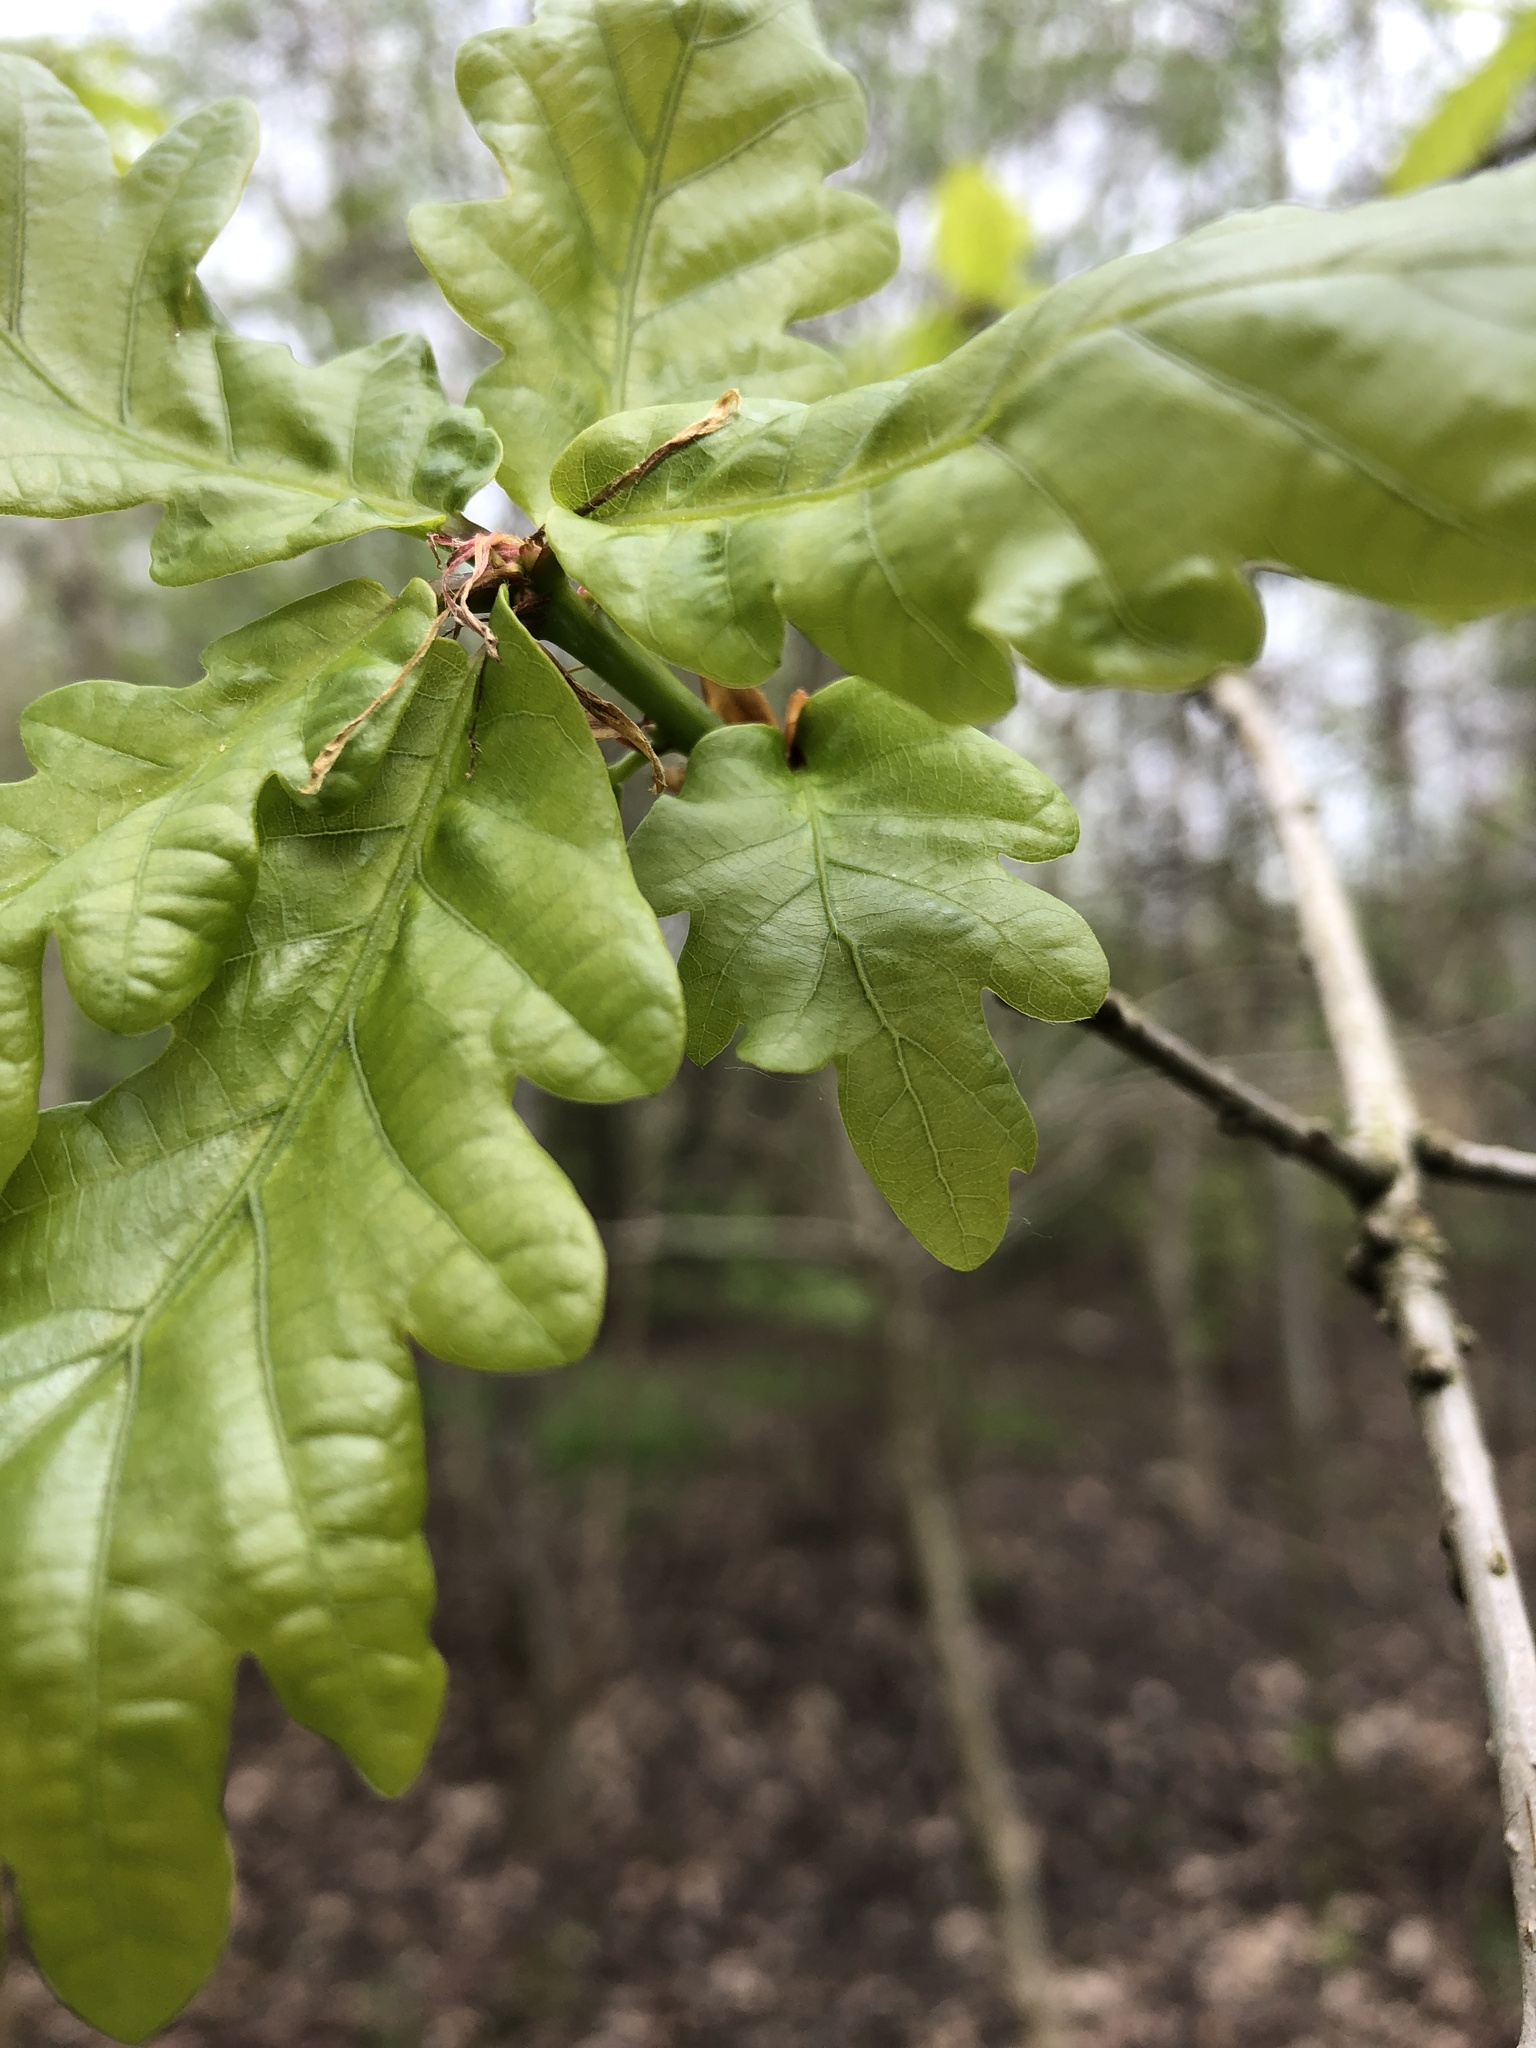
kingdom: Plantae
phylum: Tracheophyta
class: Magnoliopsida
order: Fagales
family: Fagaceae
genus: Quercus
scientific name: Quercus robur
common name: Pedunculate oak
